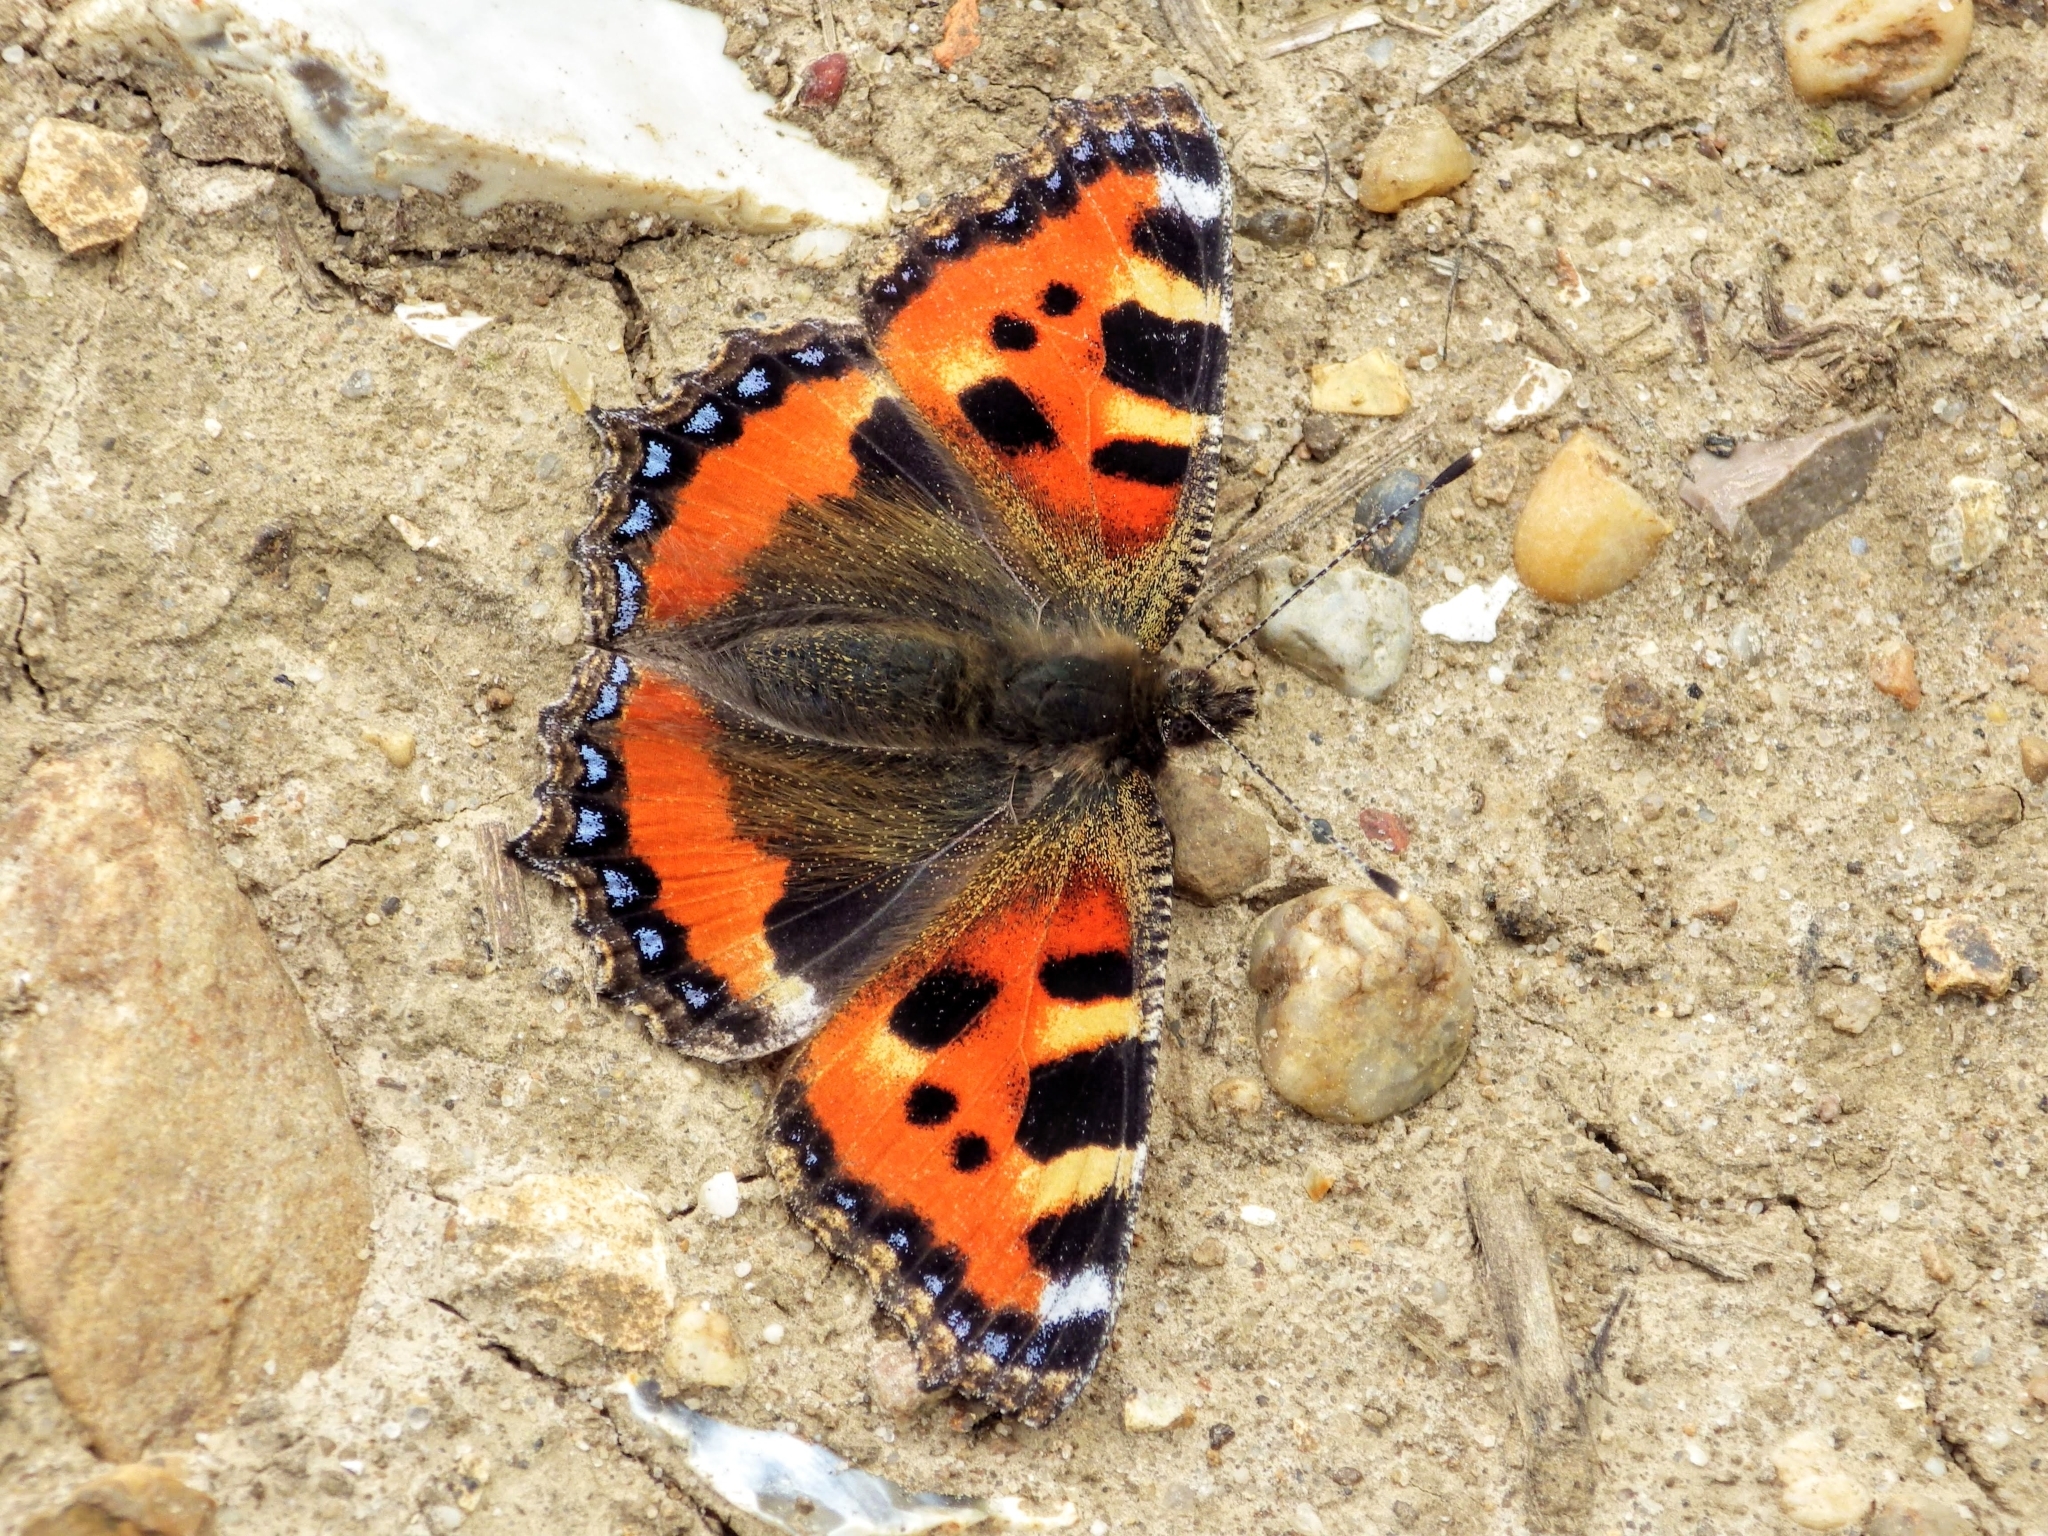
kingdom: Animalia
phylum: Arthropoda
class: Insecta
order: Lepidoptera
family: Nymphalidae
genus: Aglais
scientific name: Aglais urticae
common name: Small tortoiseshell
